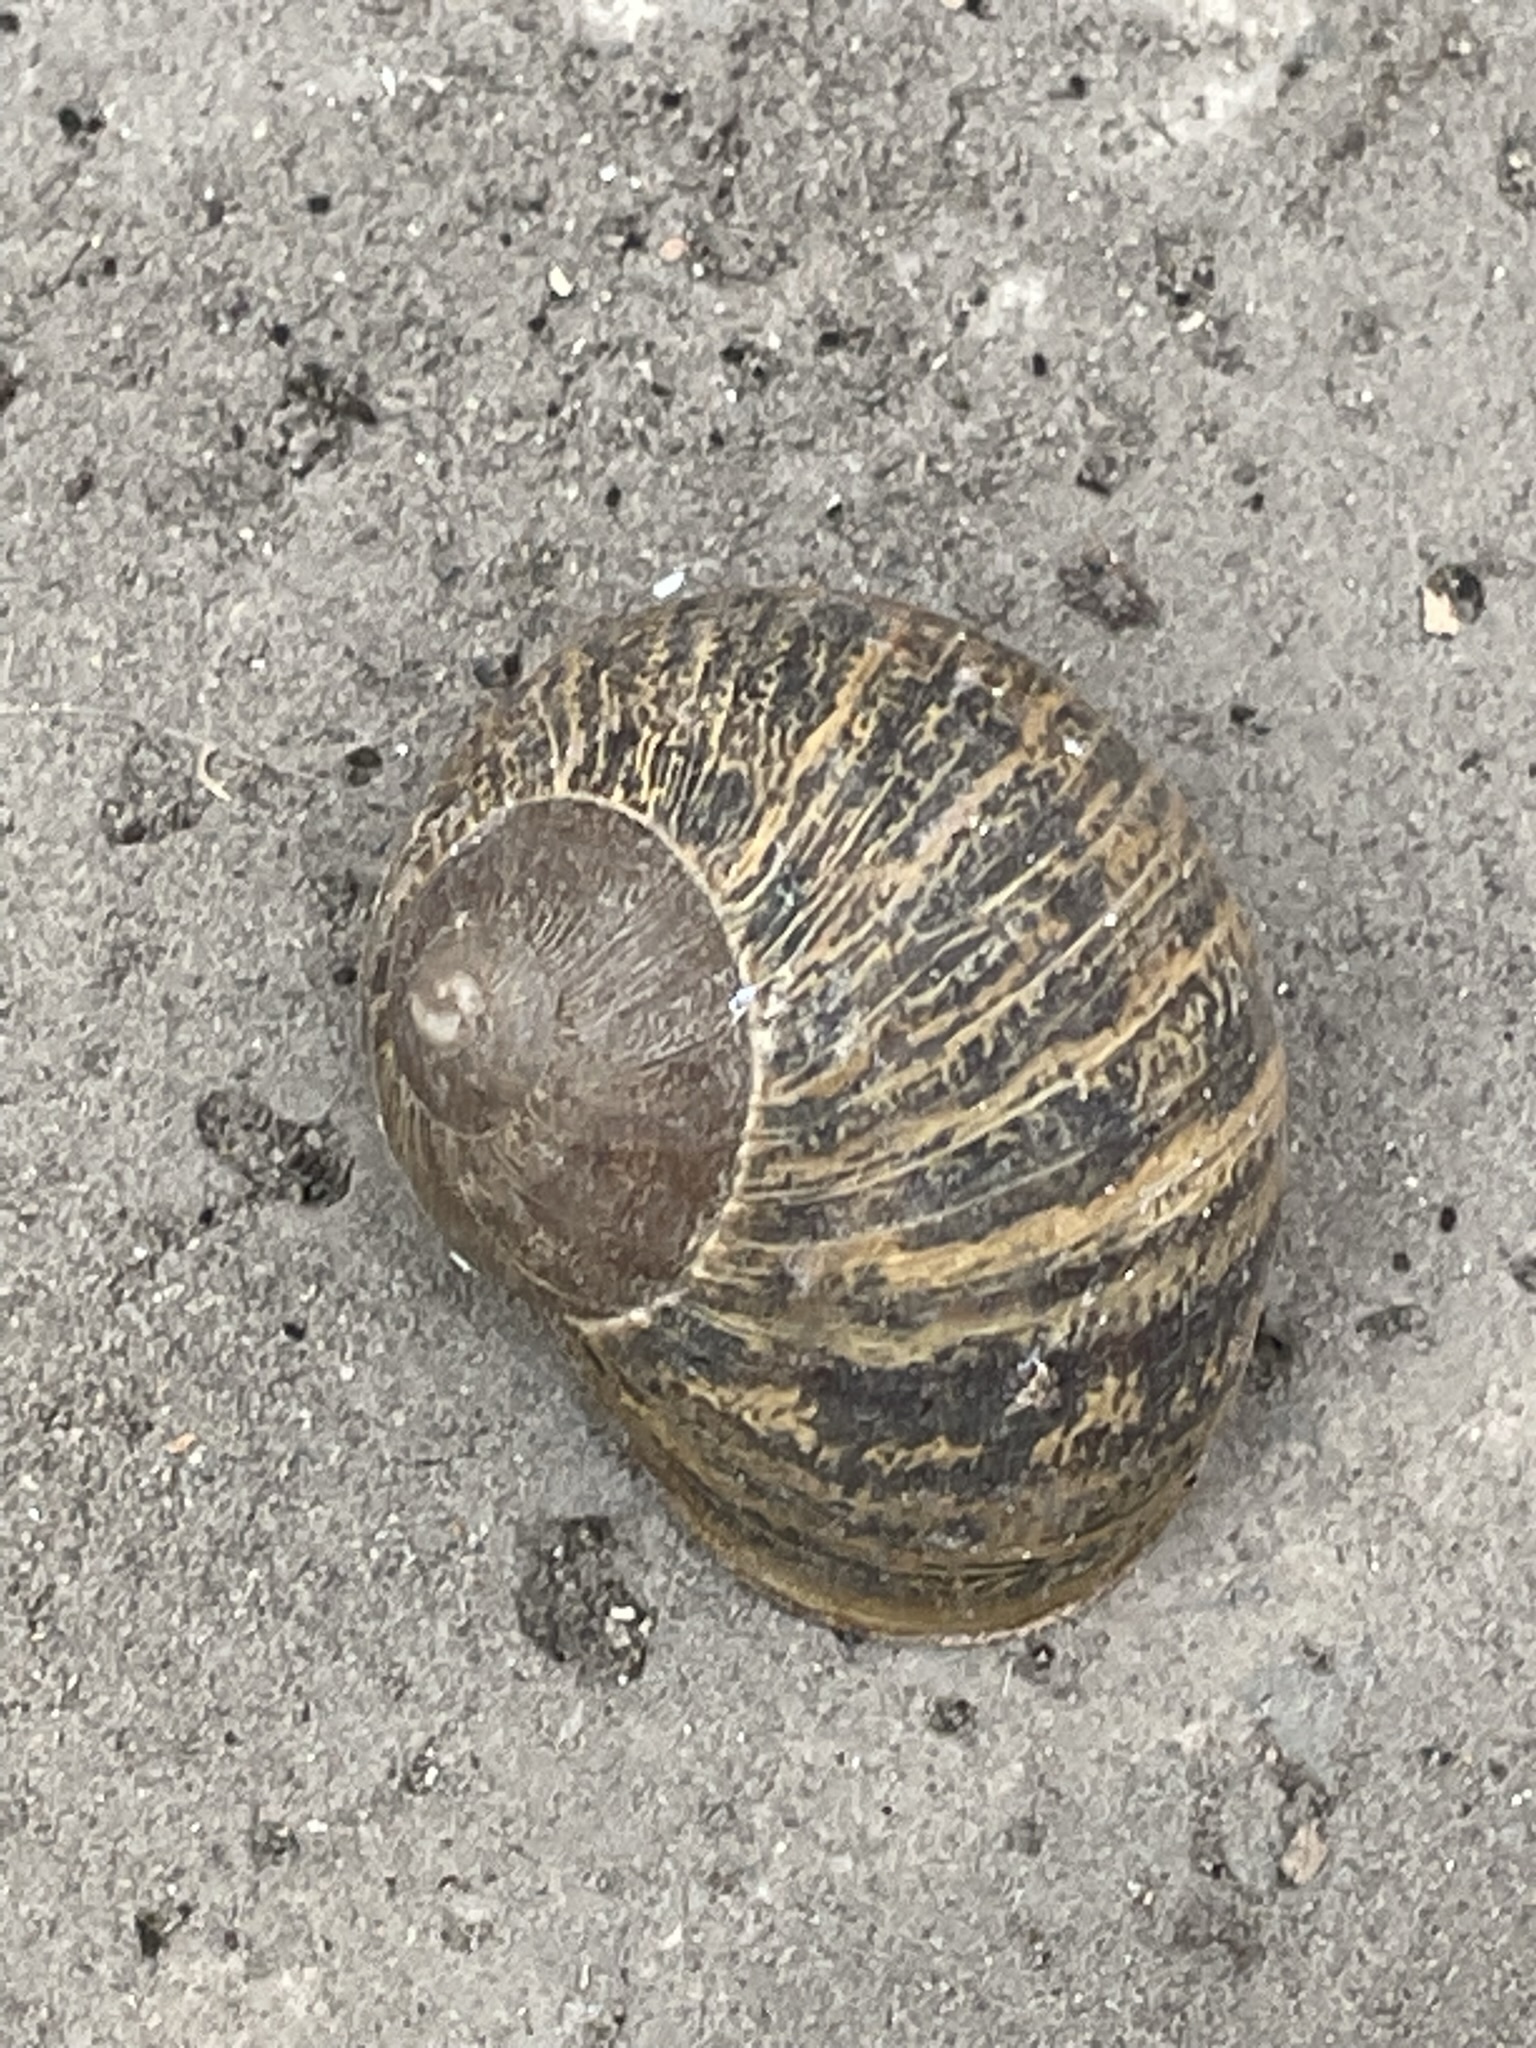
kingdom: Animalia
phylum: Mollusca
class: Gastropoda
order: Stylommatophora
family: Helicidae
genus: Cornu
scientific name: Cornu aspersum
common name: Brown garden snail
